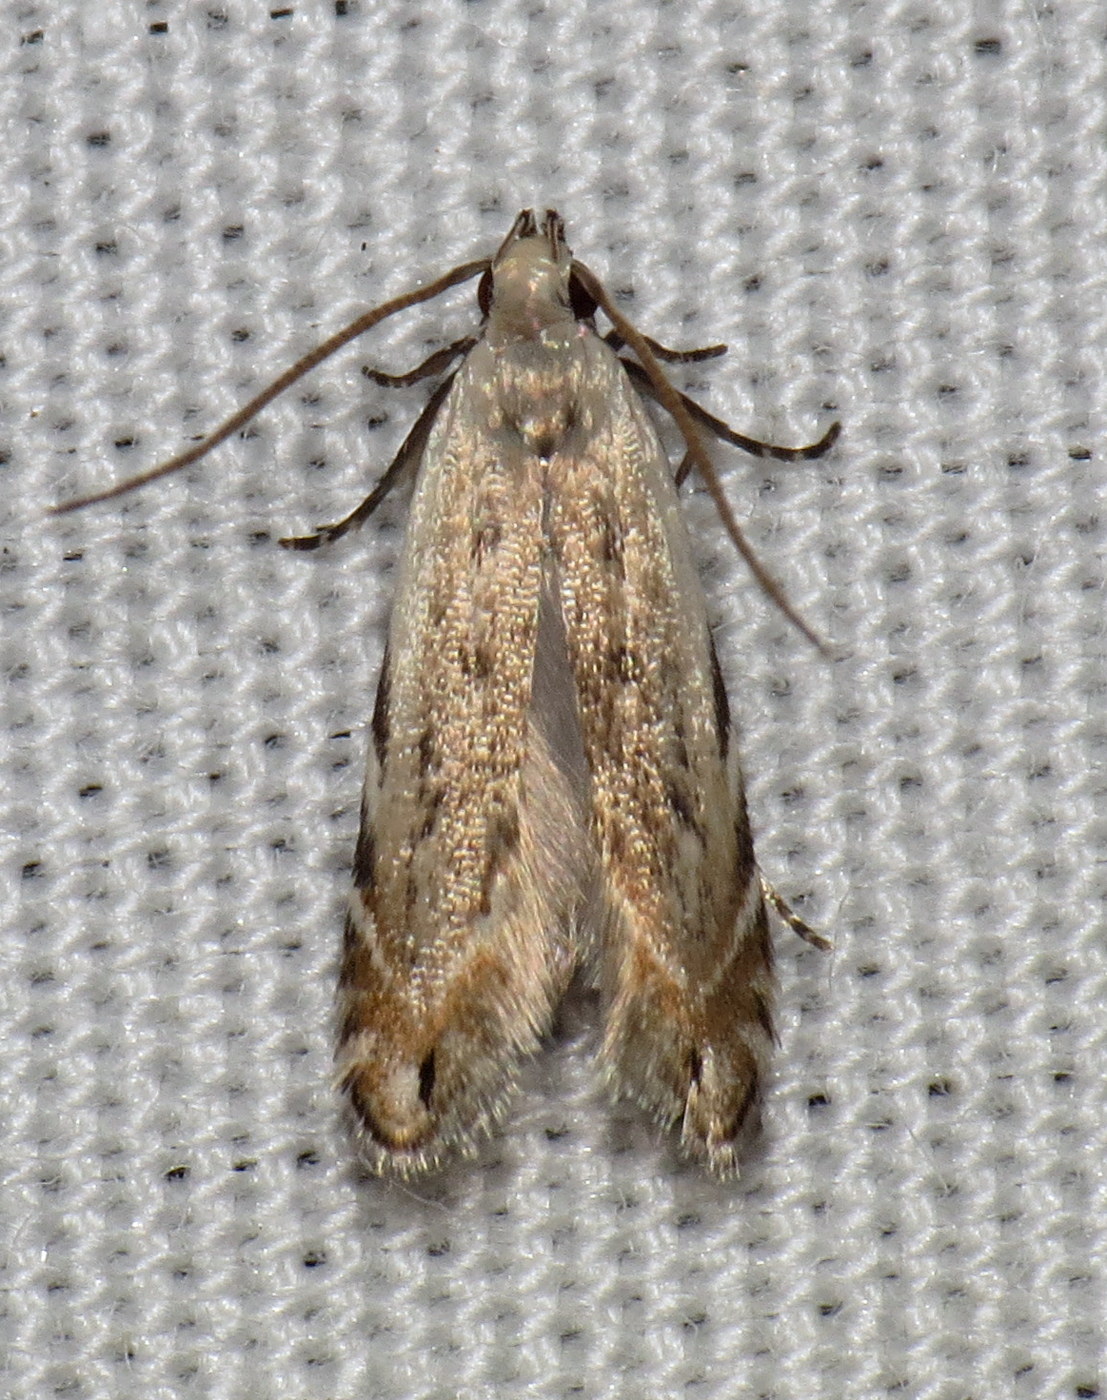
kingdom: Animalia
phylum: Arthropoda
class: Insecta
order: Lepidoptera
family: Gelechiidae
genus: Battaristis
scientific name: Battaristis nigratomella
